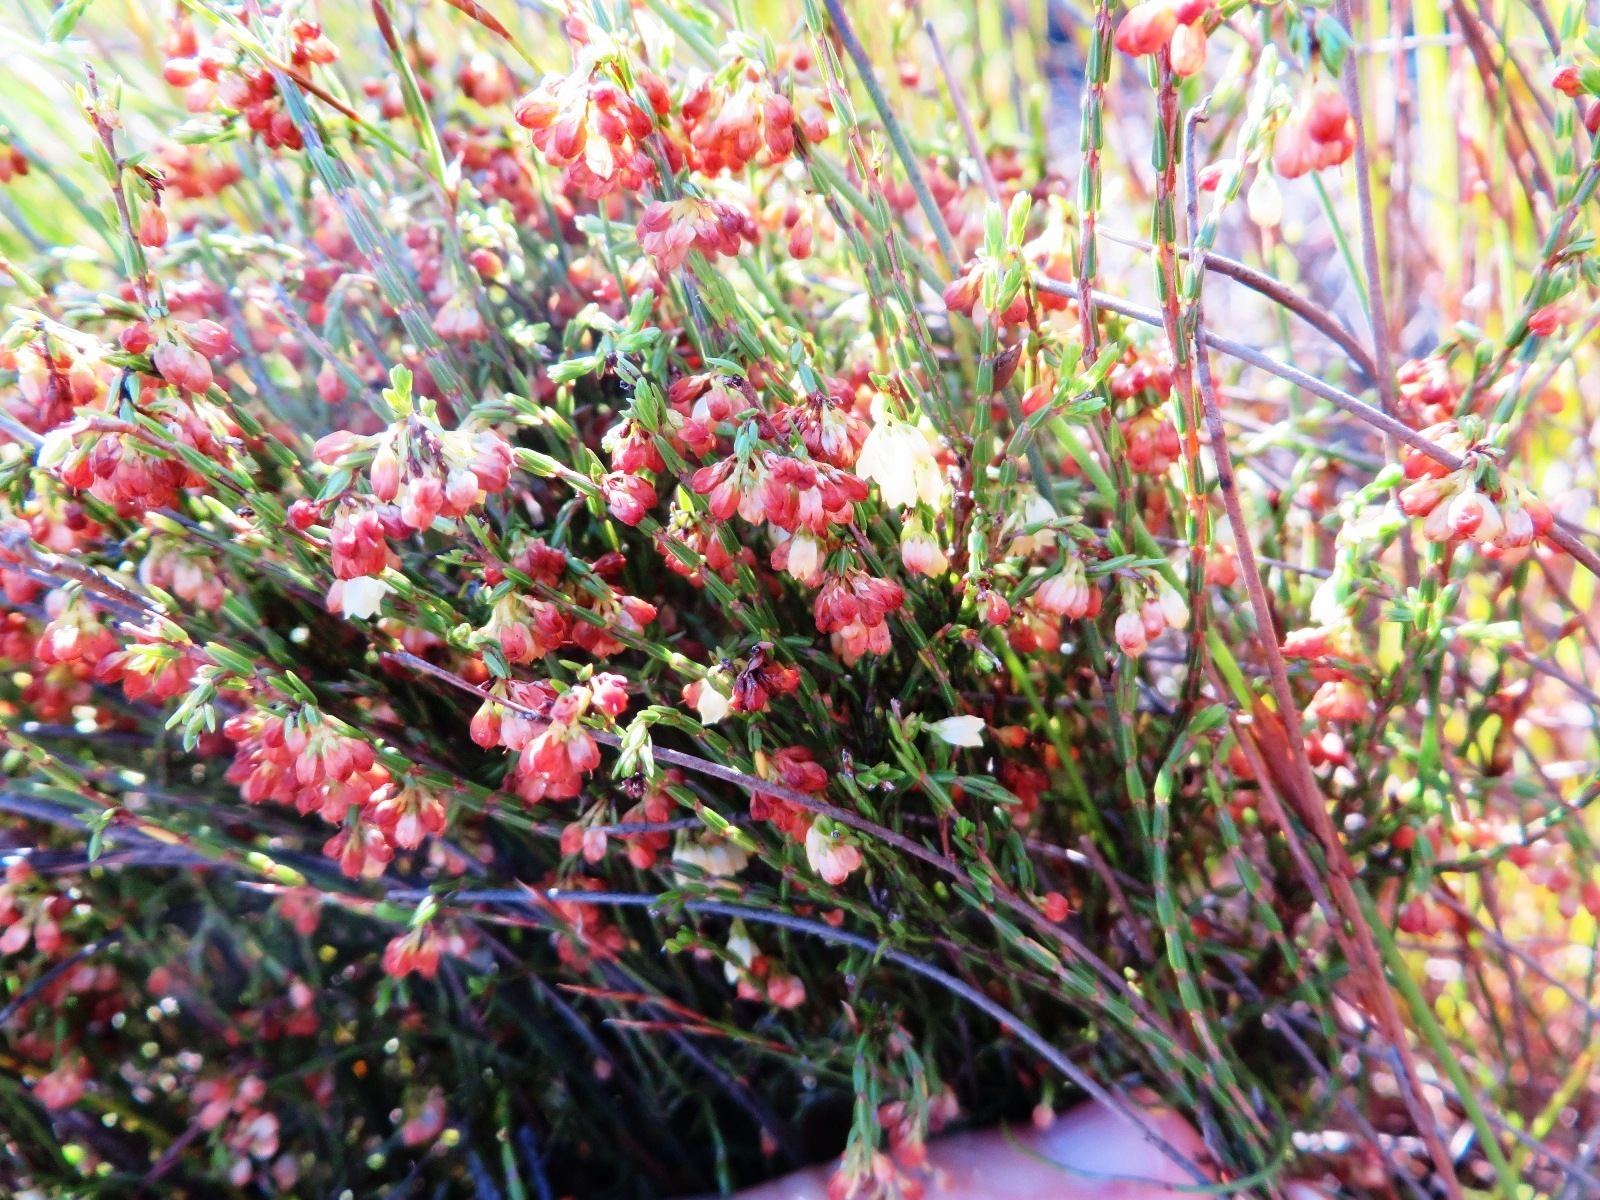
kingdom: Plantae
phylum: Tracheophyta
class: Magnoliopsida
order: Ericales
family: Ericaceae
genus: Erica
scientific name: Erica multiflexuosa
